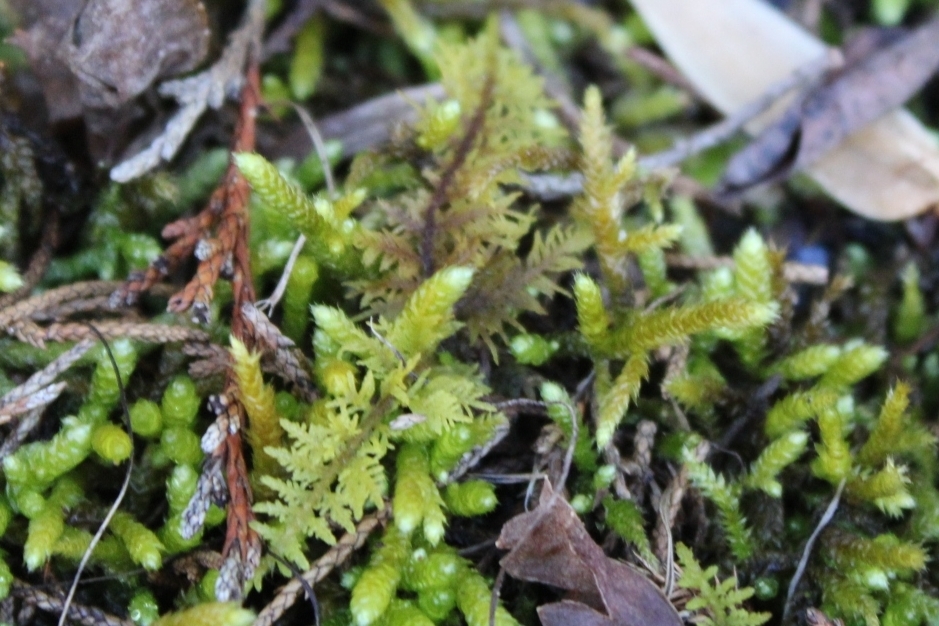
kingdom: Plantae
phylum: Bryophyta
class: Bryopsida
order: Hypnales
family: Thuidiaceae
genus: Thuidium
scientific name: Thuidium delicatulum
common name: Delicate fern moss
